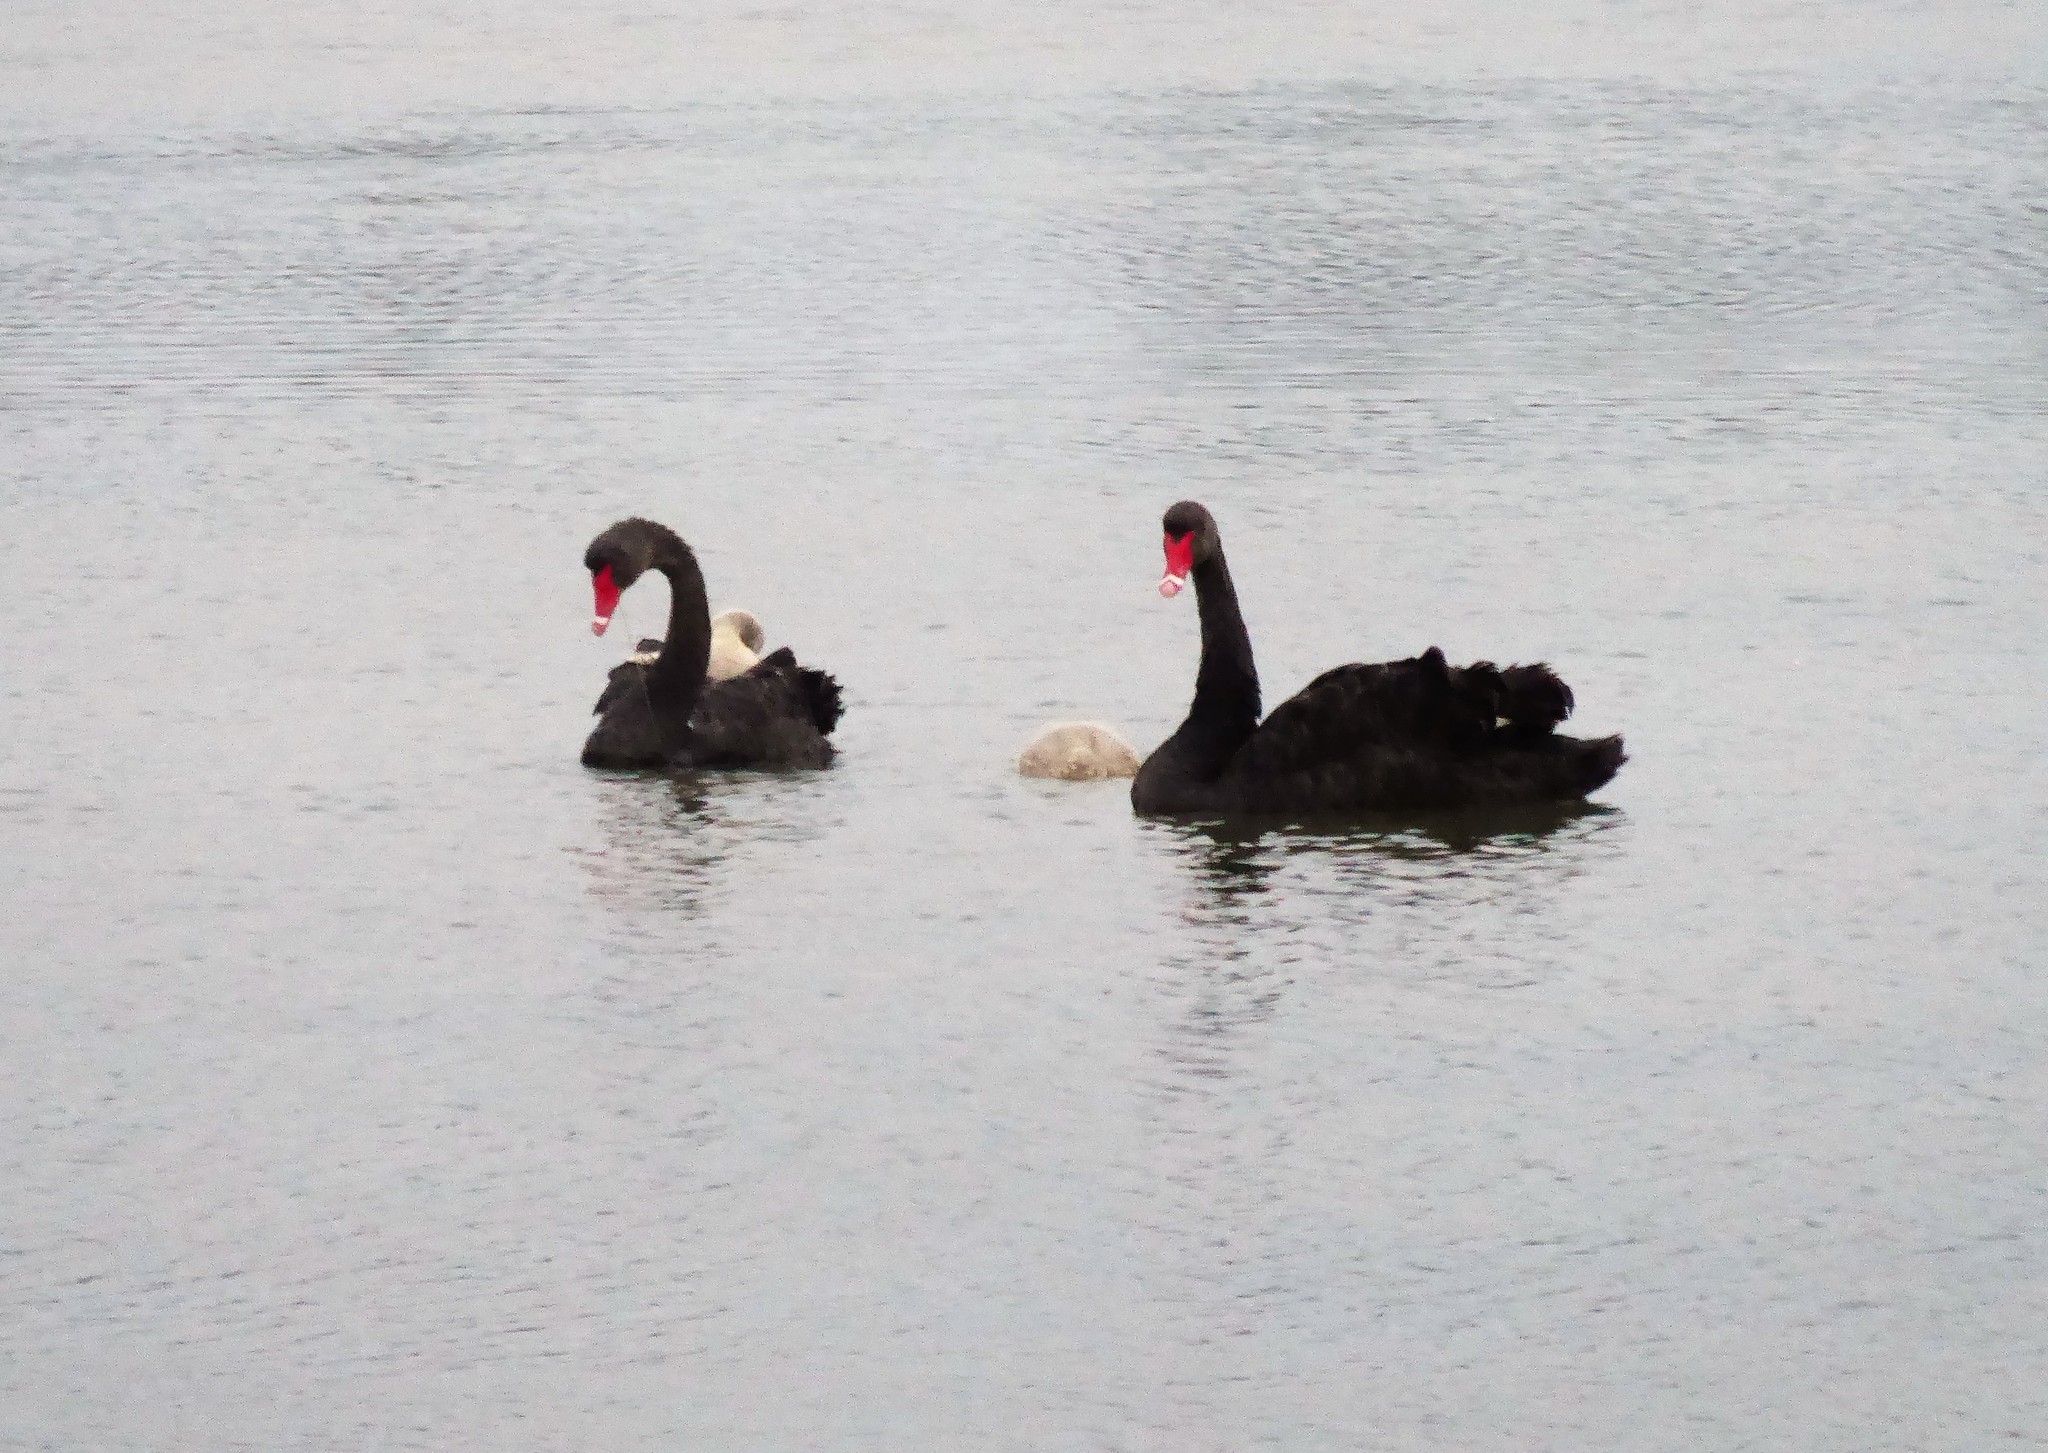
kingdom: Animalia
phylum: Chordata
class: Aves
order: Anseriformes
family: Anatidae
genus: Cygnus
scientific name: Cygnus atratus
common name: Black swan
